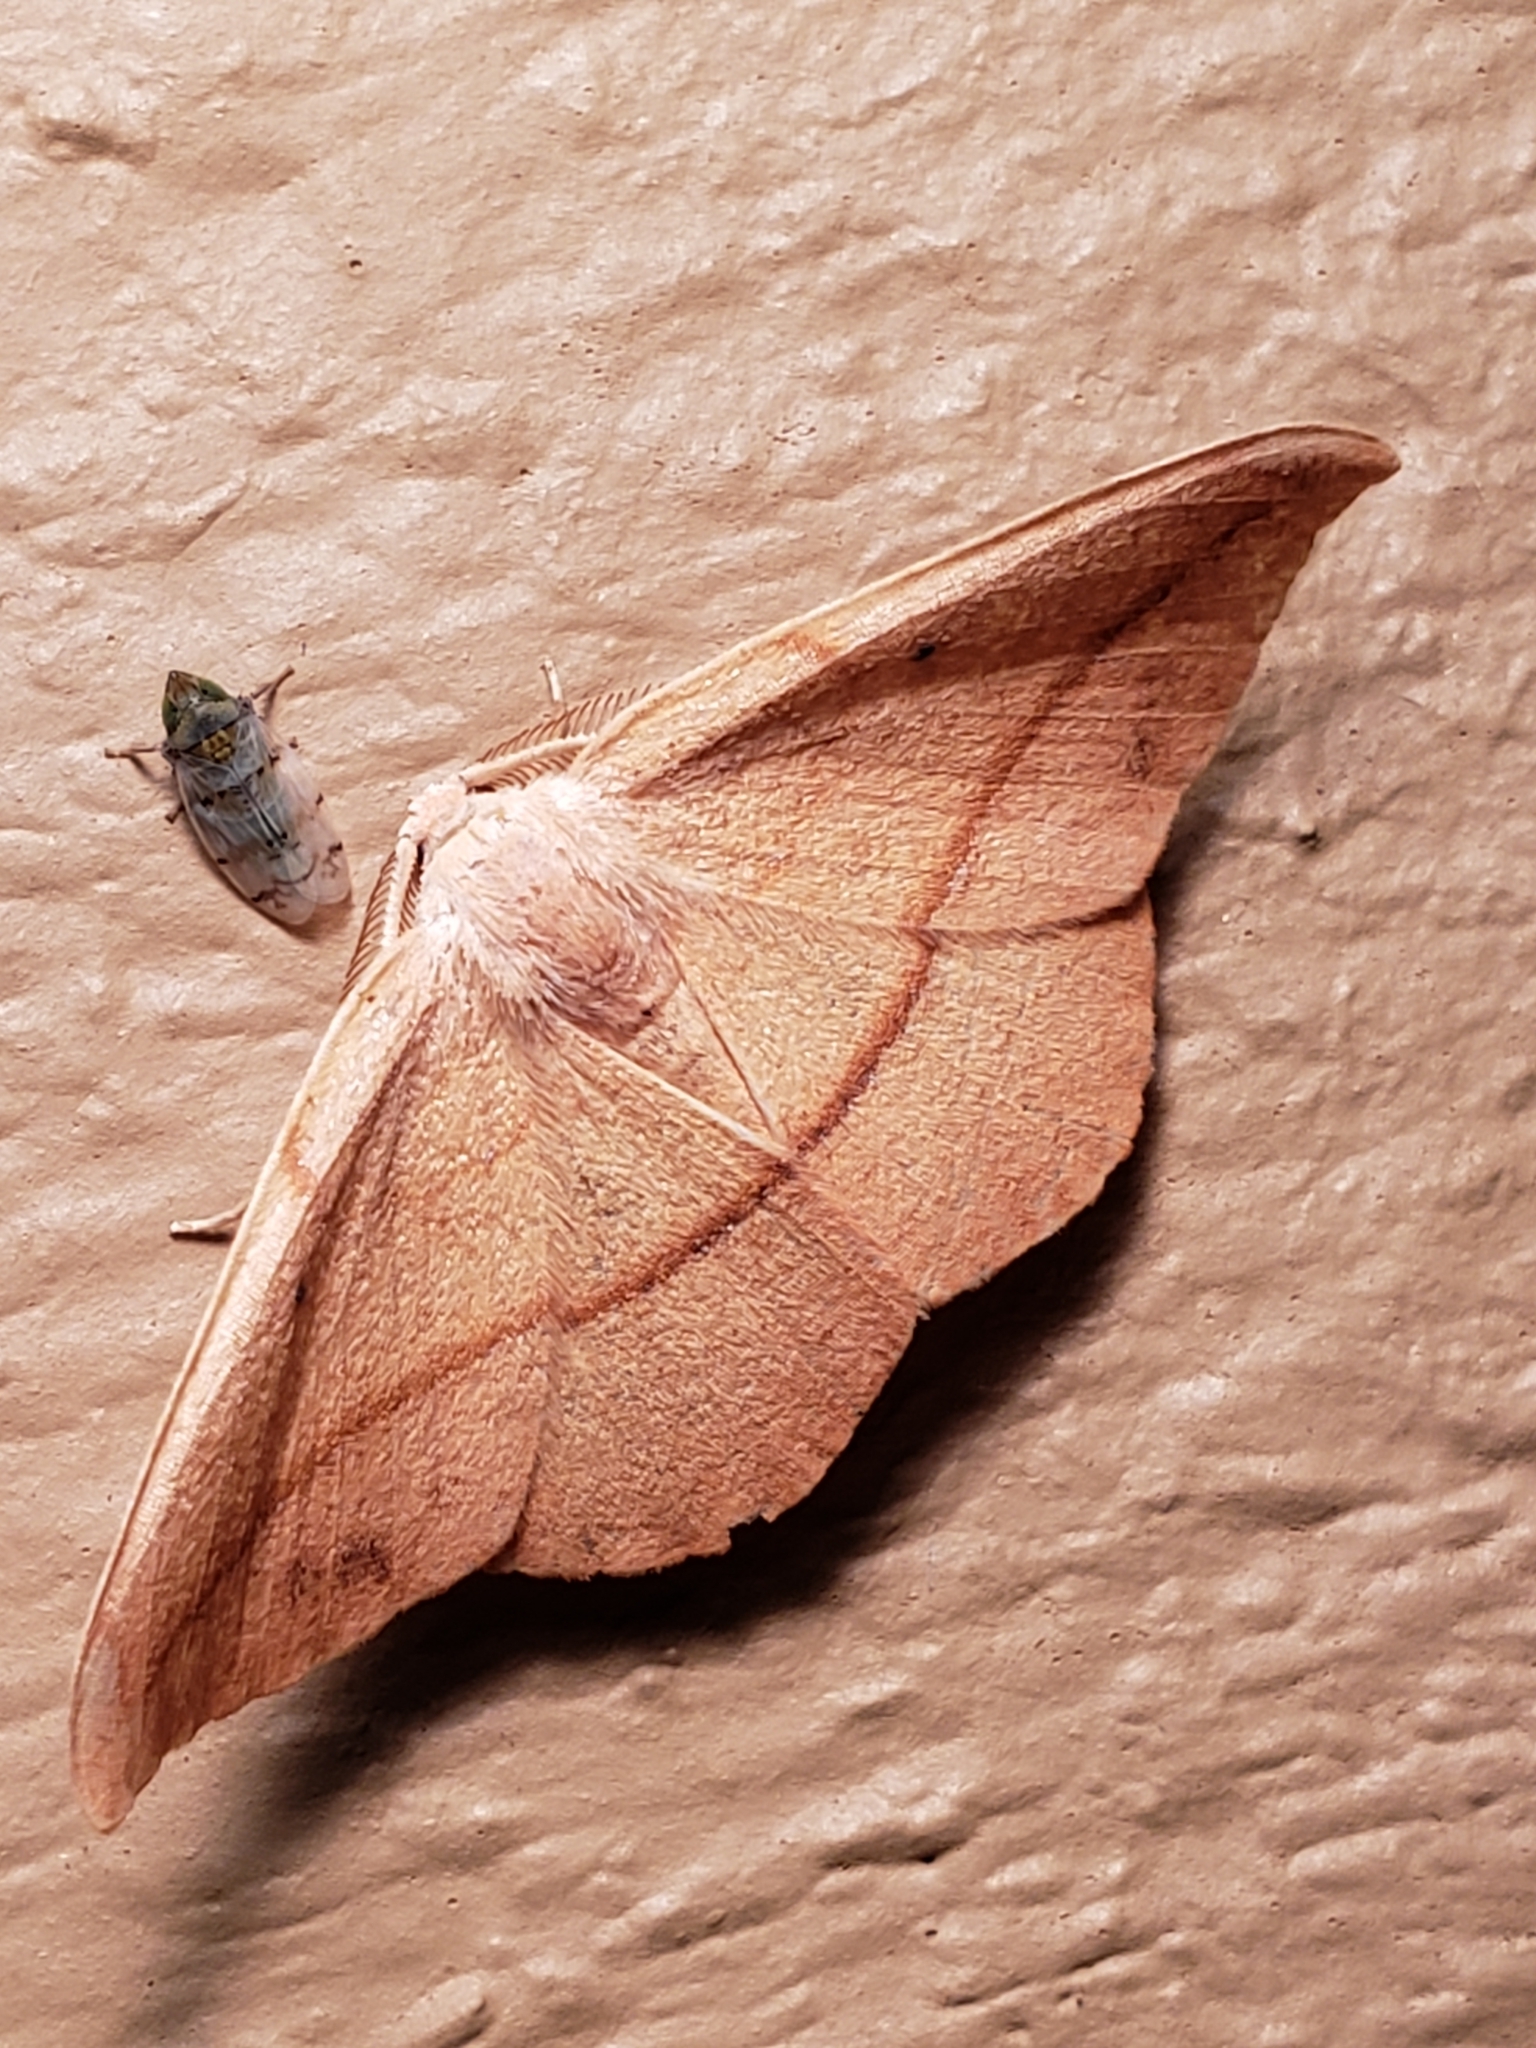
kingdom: Animalia
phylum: Arthropoda
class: Insecta
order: Lepidoptera
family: Geometridae
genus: Patalene
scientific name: Patalene olyzonaria
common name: Juniper geometer moth
